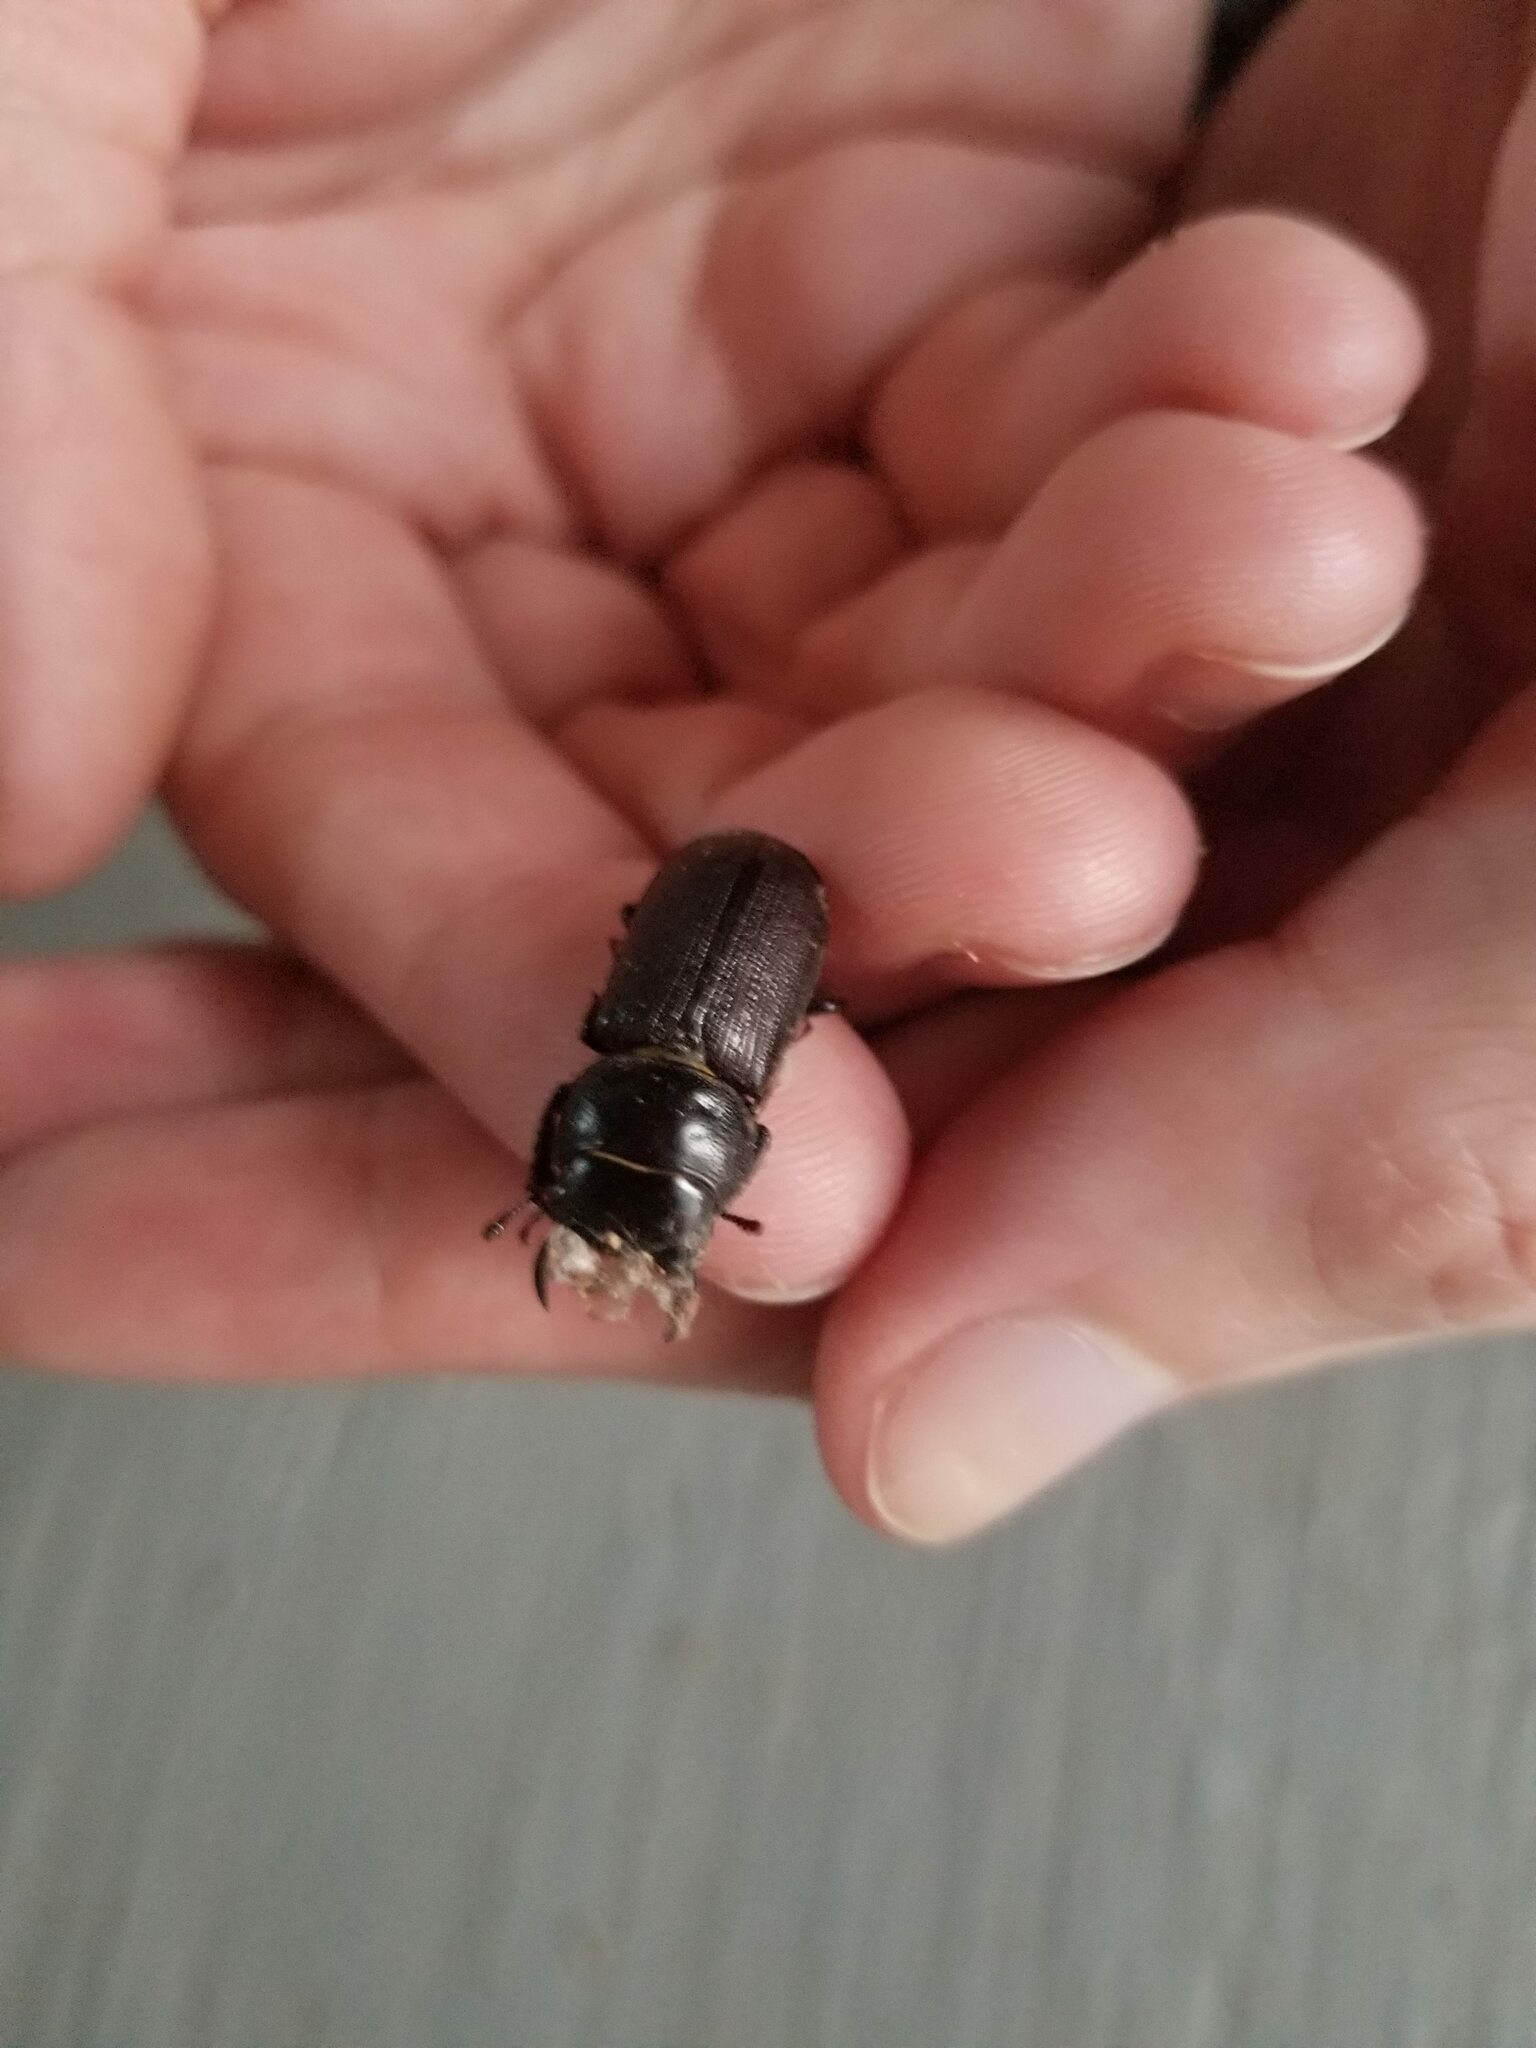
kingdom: Animalia
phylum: Arthropoda
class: Insecta
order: Coleoptera
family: Lucanidae
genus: Dorcus
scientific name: Dorcus parallelus
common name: Antelope beetle
